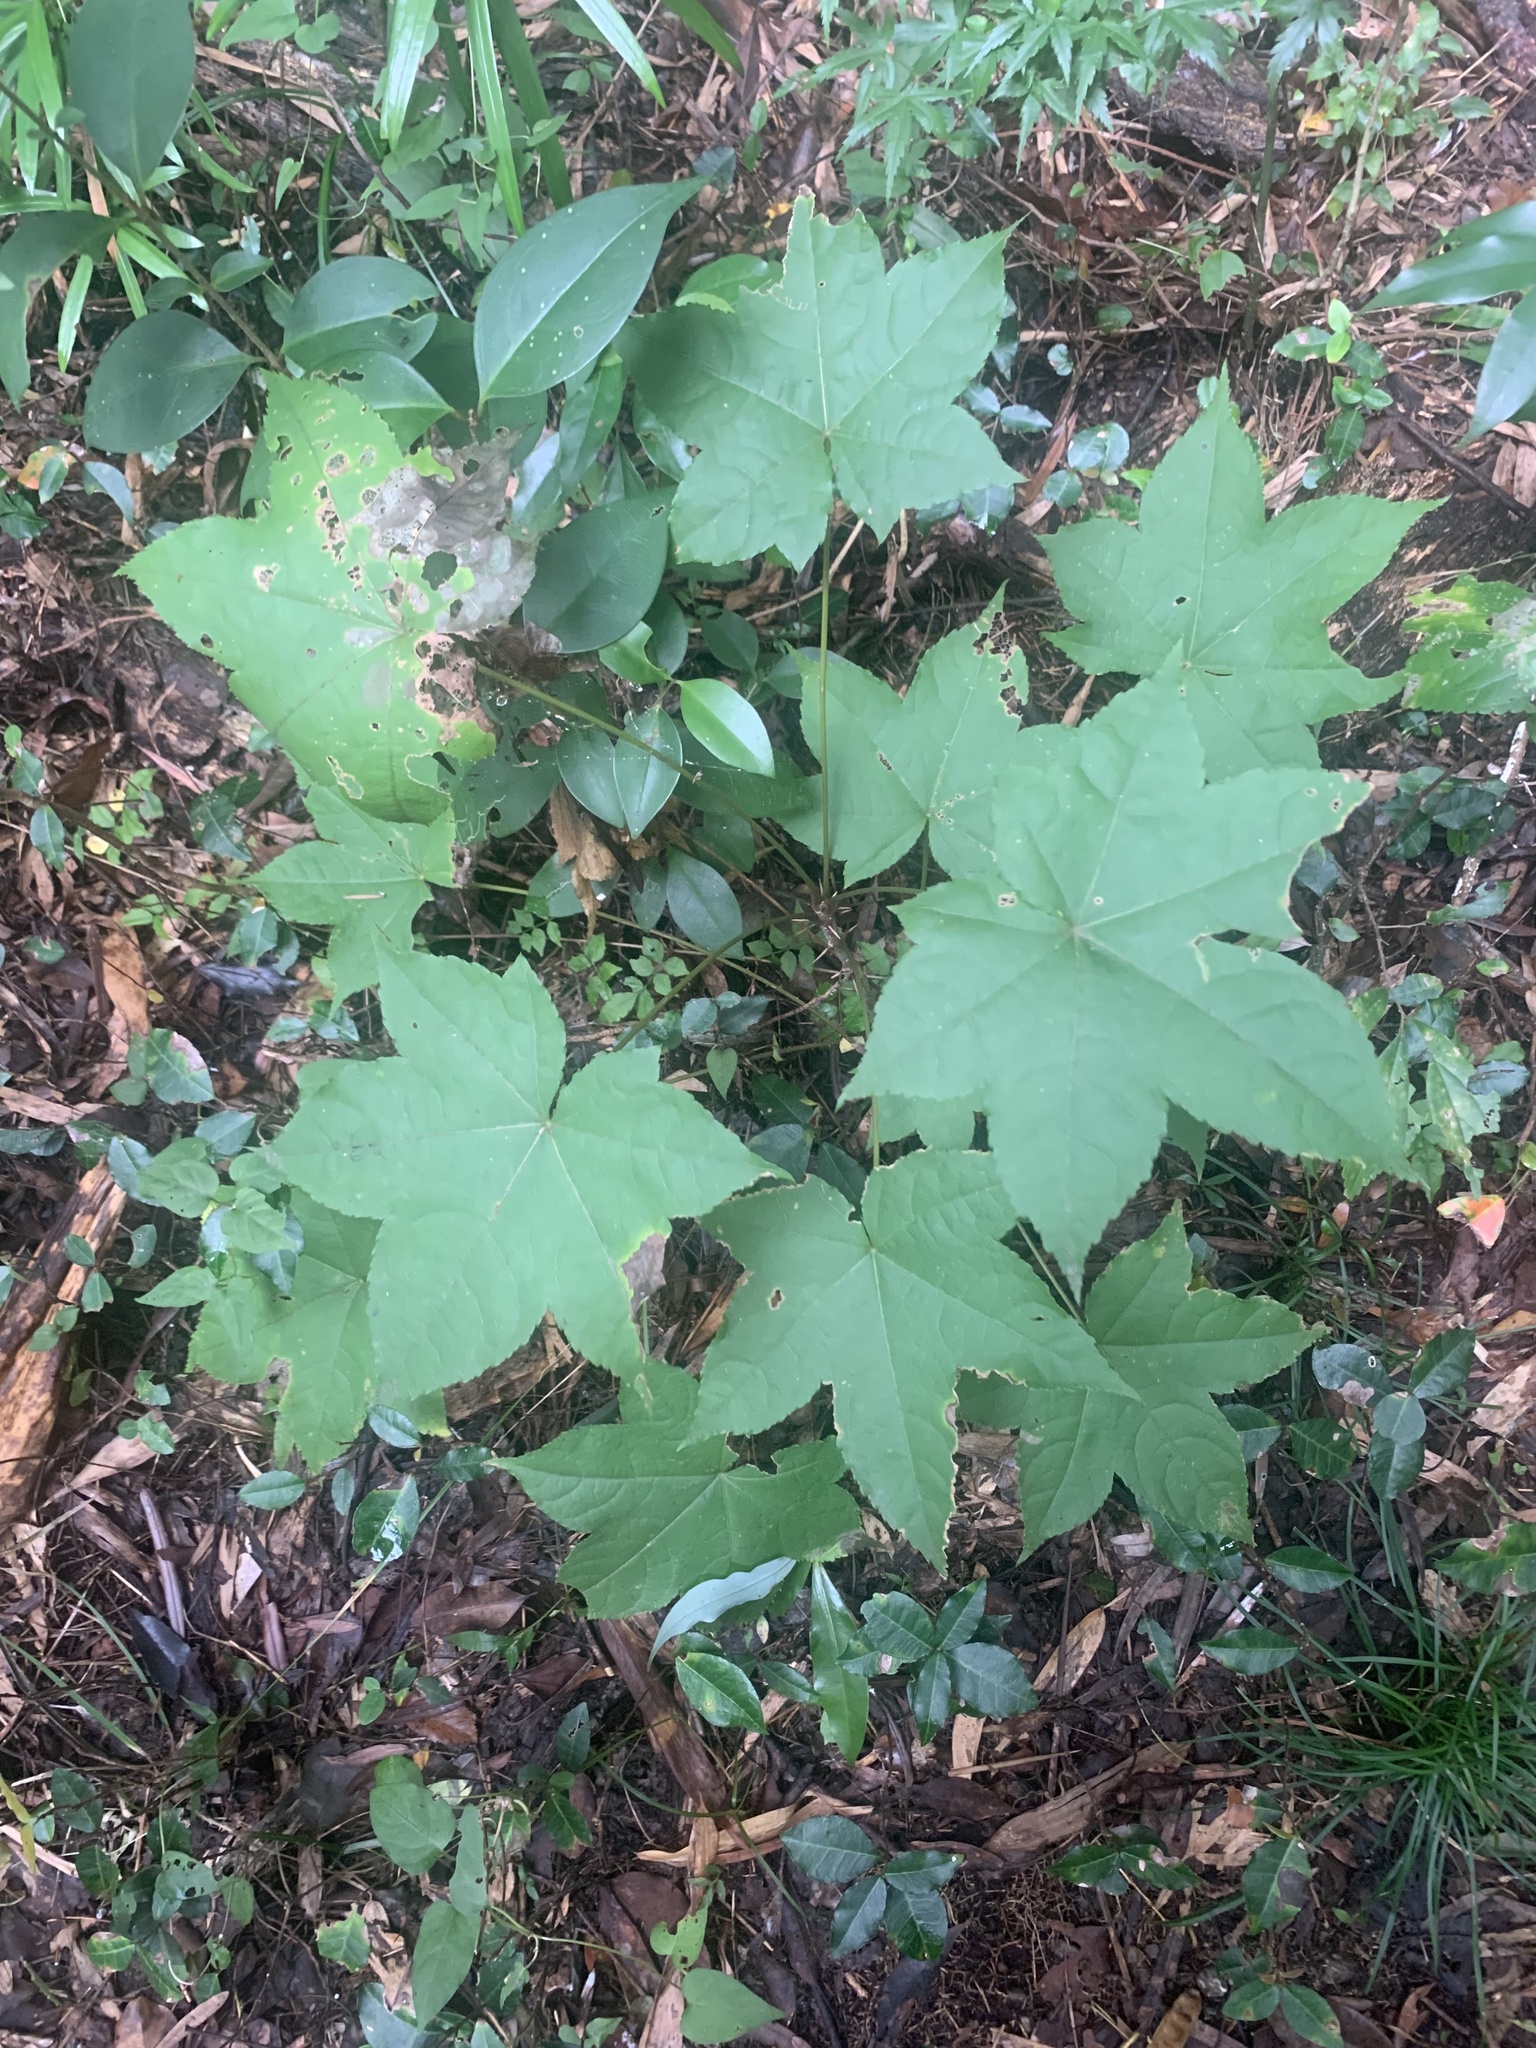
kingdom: Plantae
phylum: Tracheophyta
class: Magnoliopsida
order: Apiales
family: Araliaceae
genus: Kalopanax
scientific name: Kalopanax septemlobus
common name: Castor aralia
